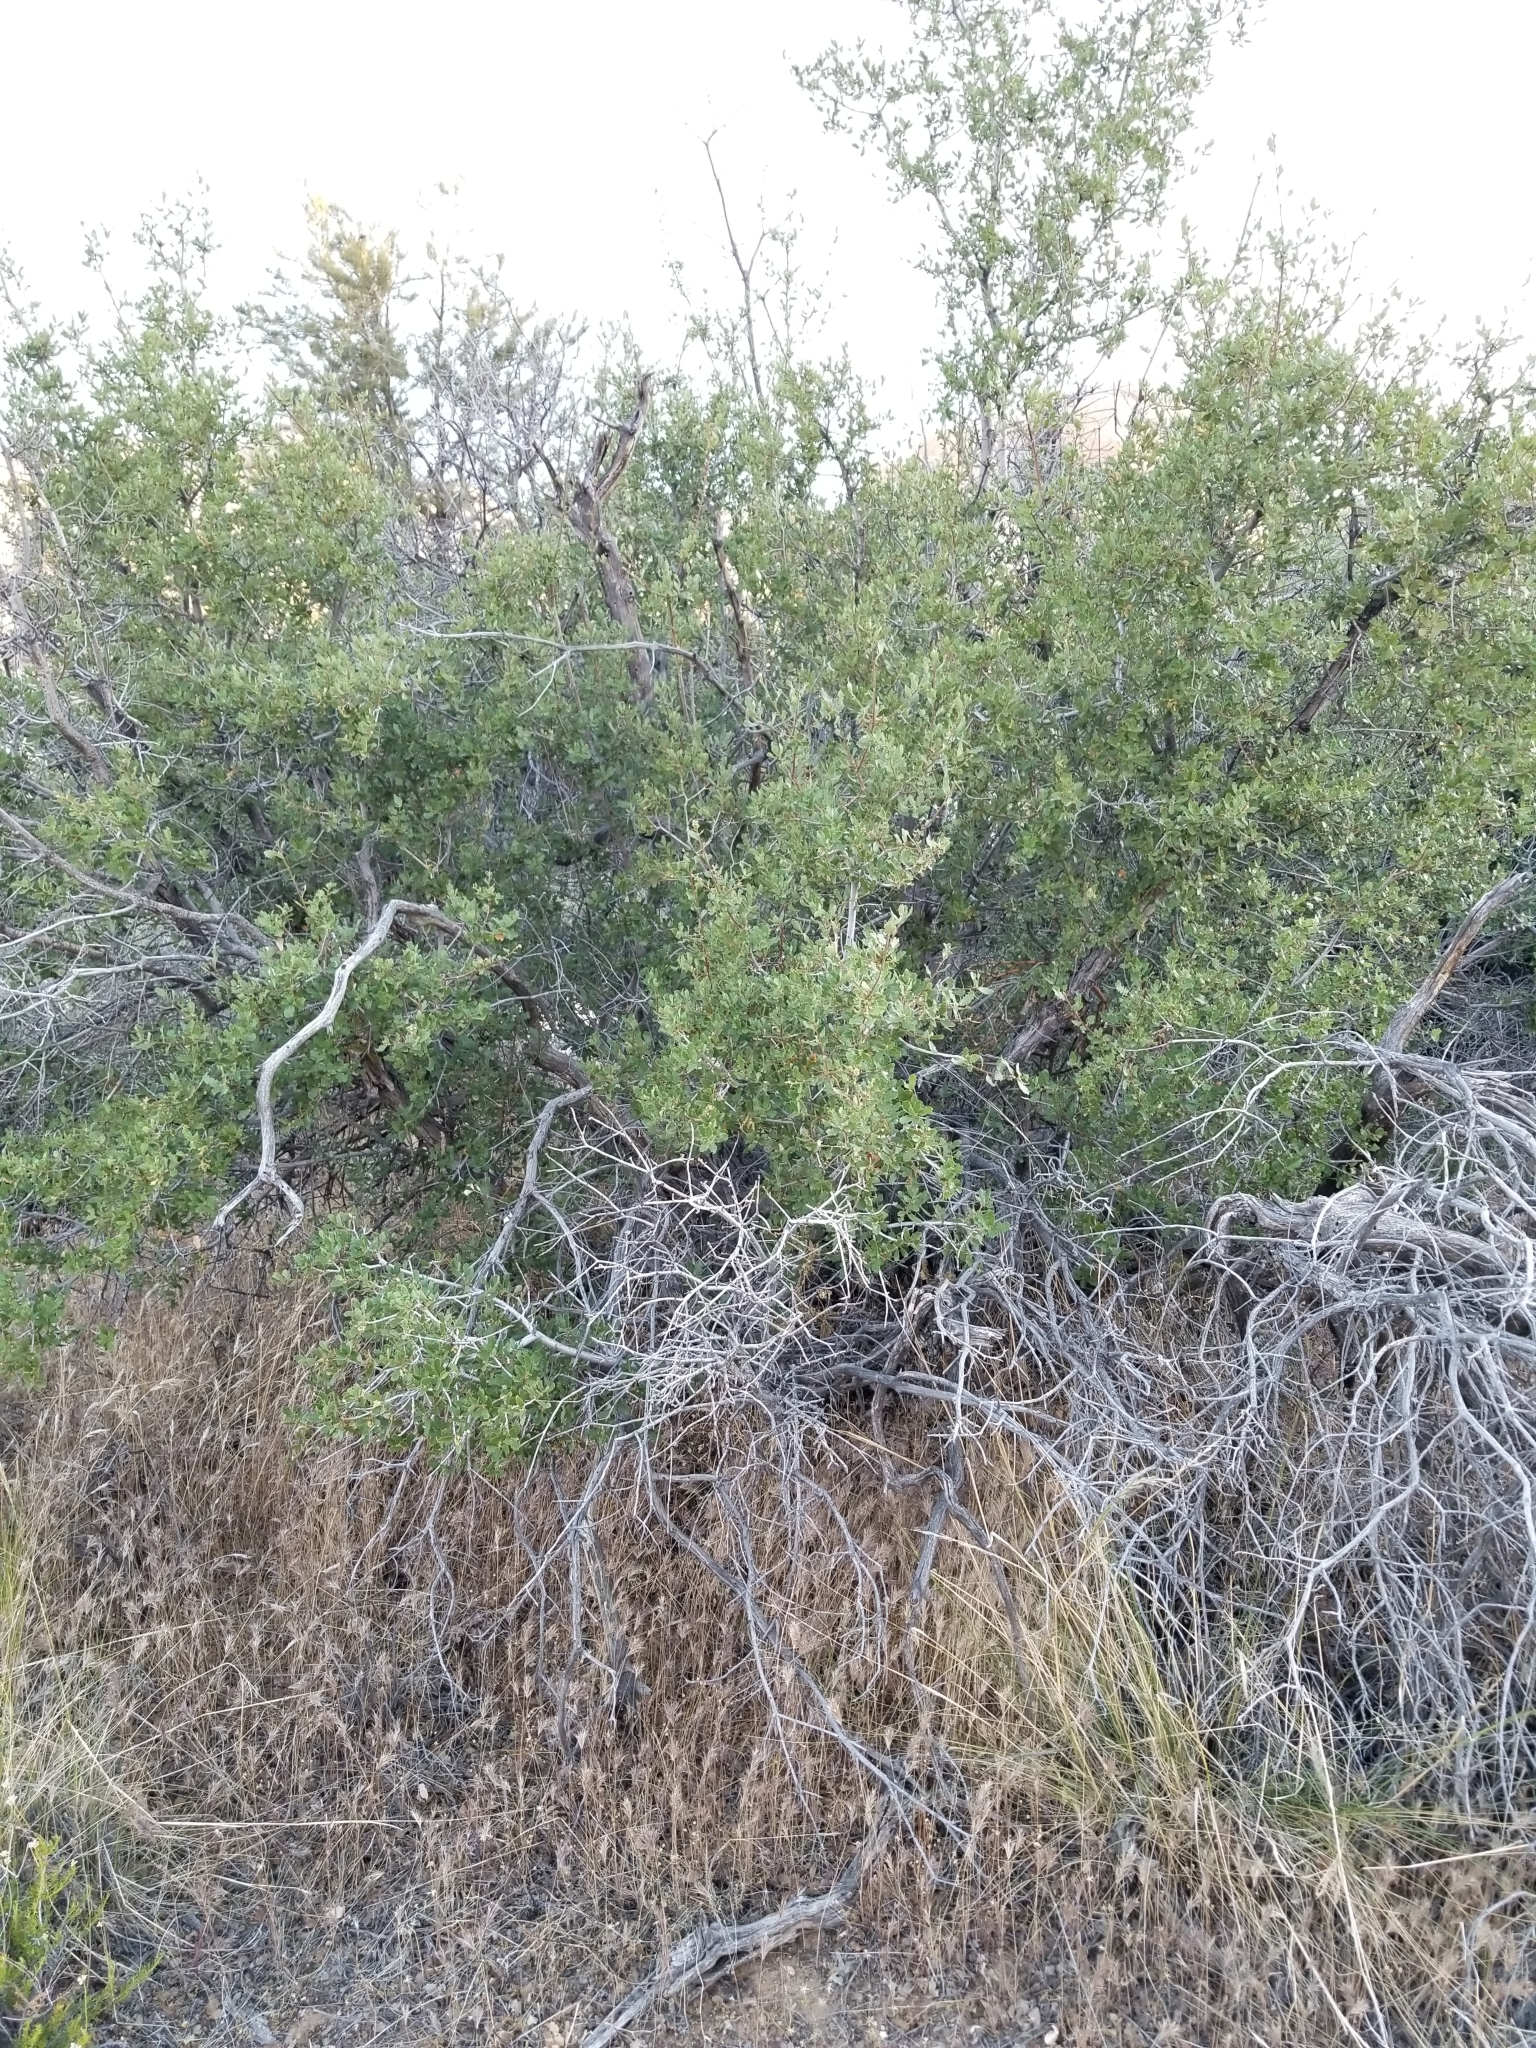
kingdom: Plantae
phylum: Tracheophyta
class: Magnoliopsida
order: Fagales
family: Fagaceae
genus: Quercus
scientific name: Quercus cornelius-mulleri
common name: Muller oak
